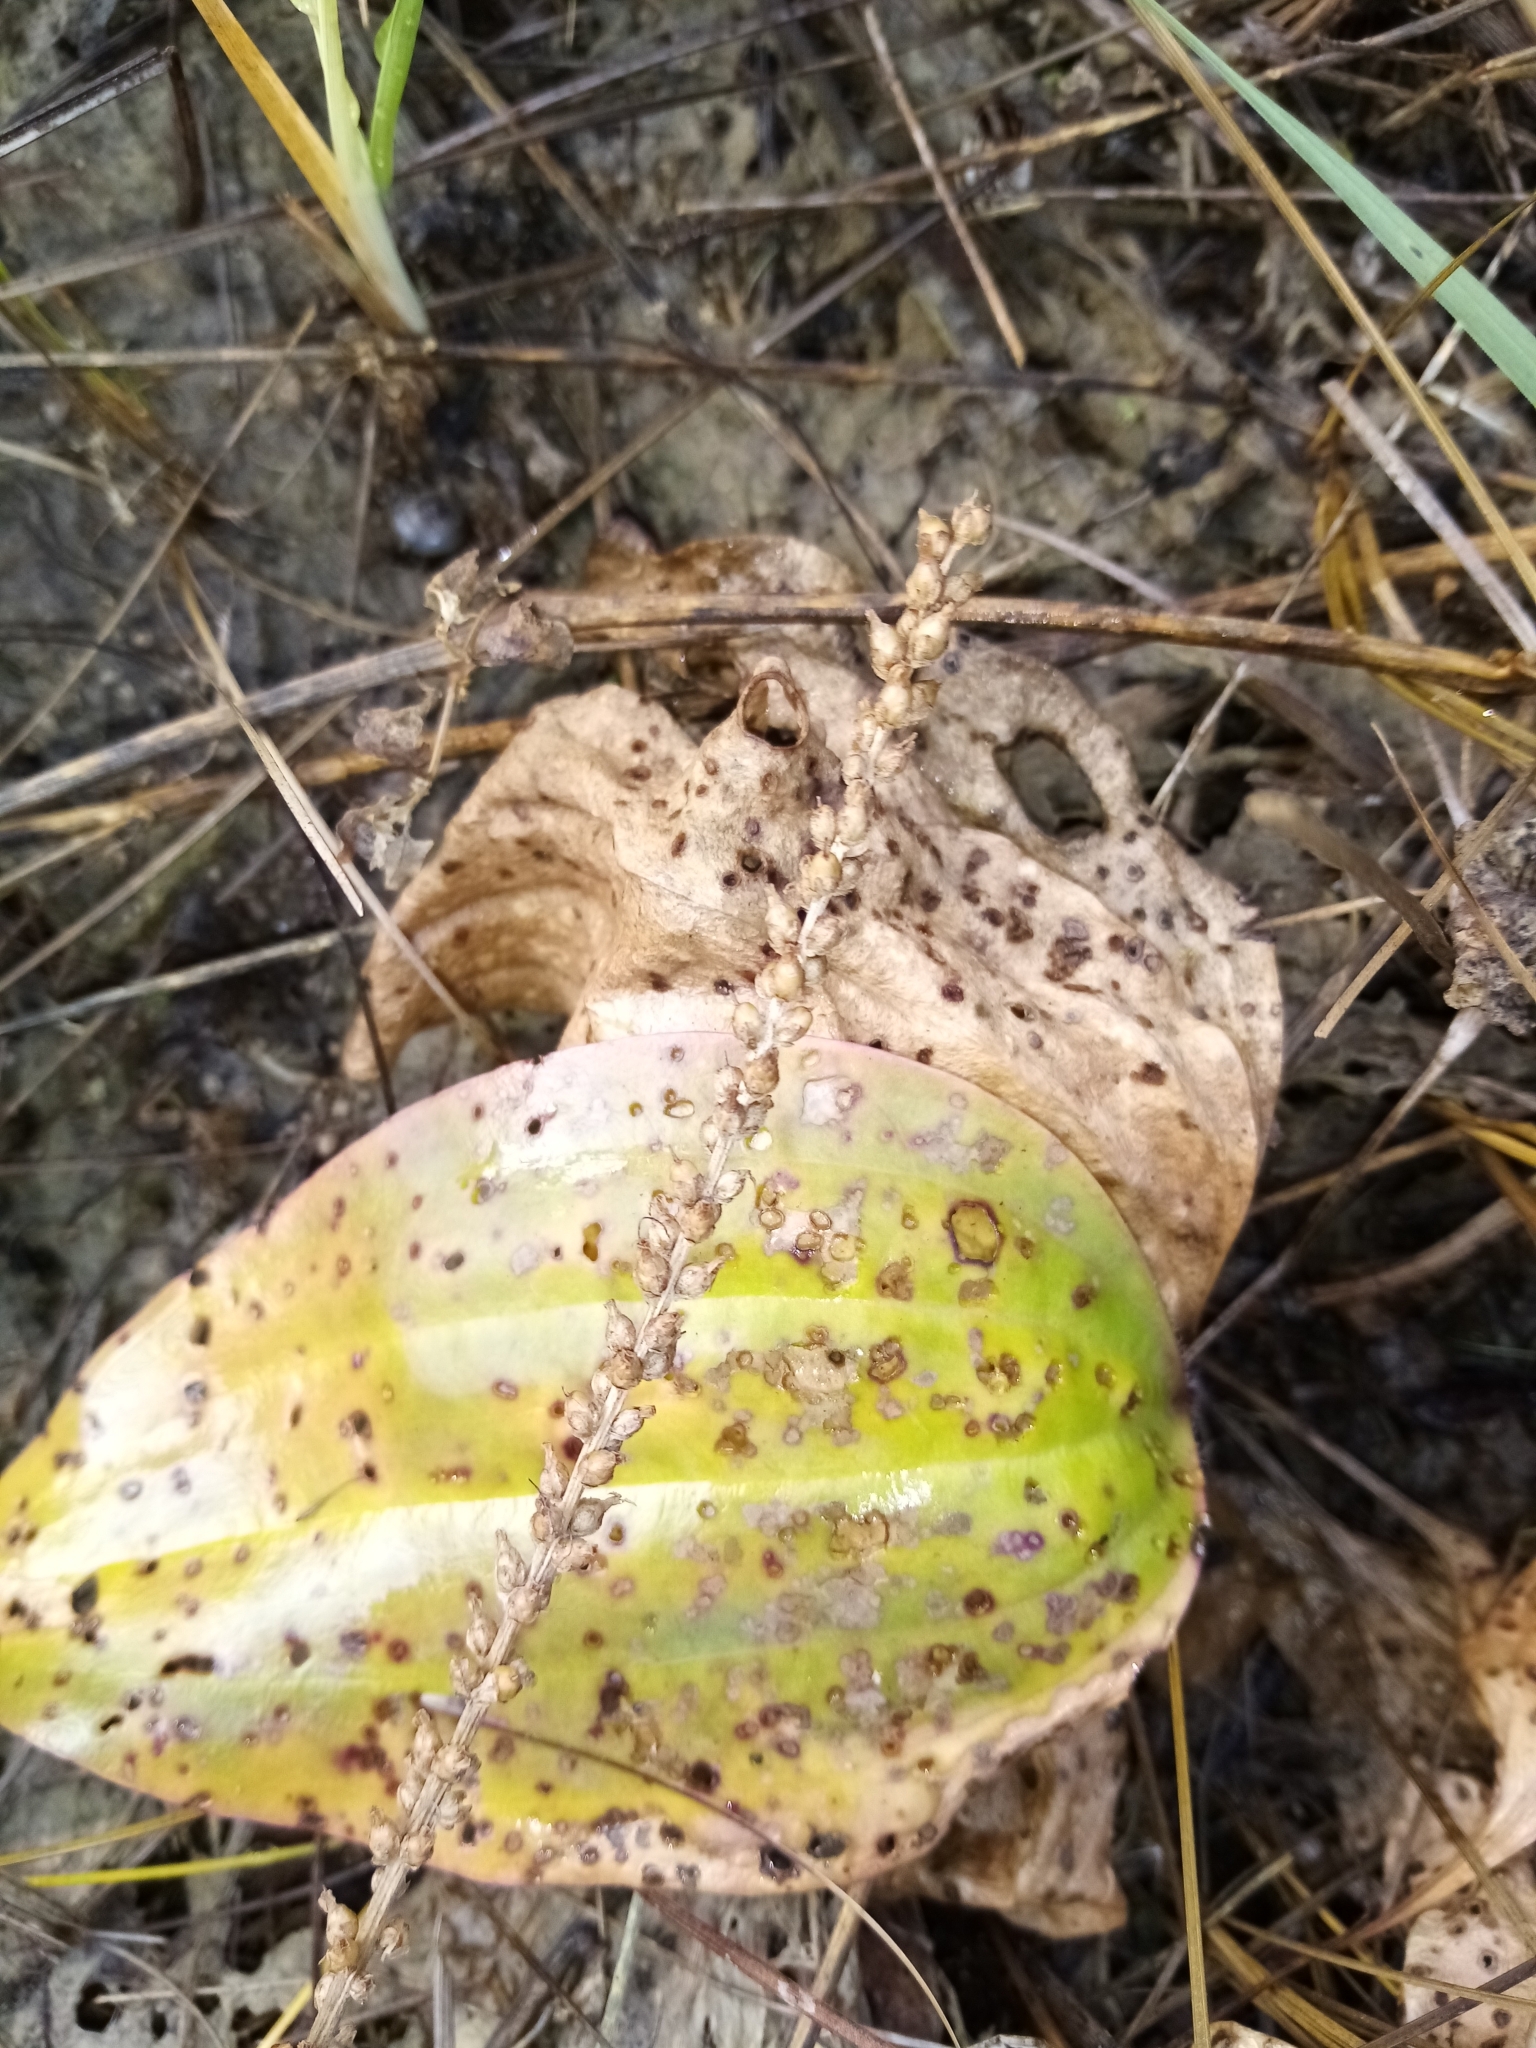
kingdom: Plantae
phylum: Tracheophyta
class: Magnoliopsida
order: Lamiales
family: Plantaginaceae
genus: Plantago
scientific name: Plantago cornuti
